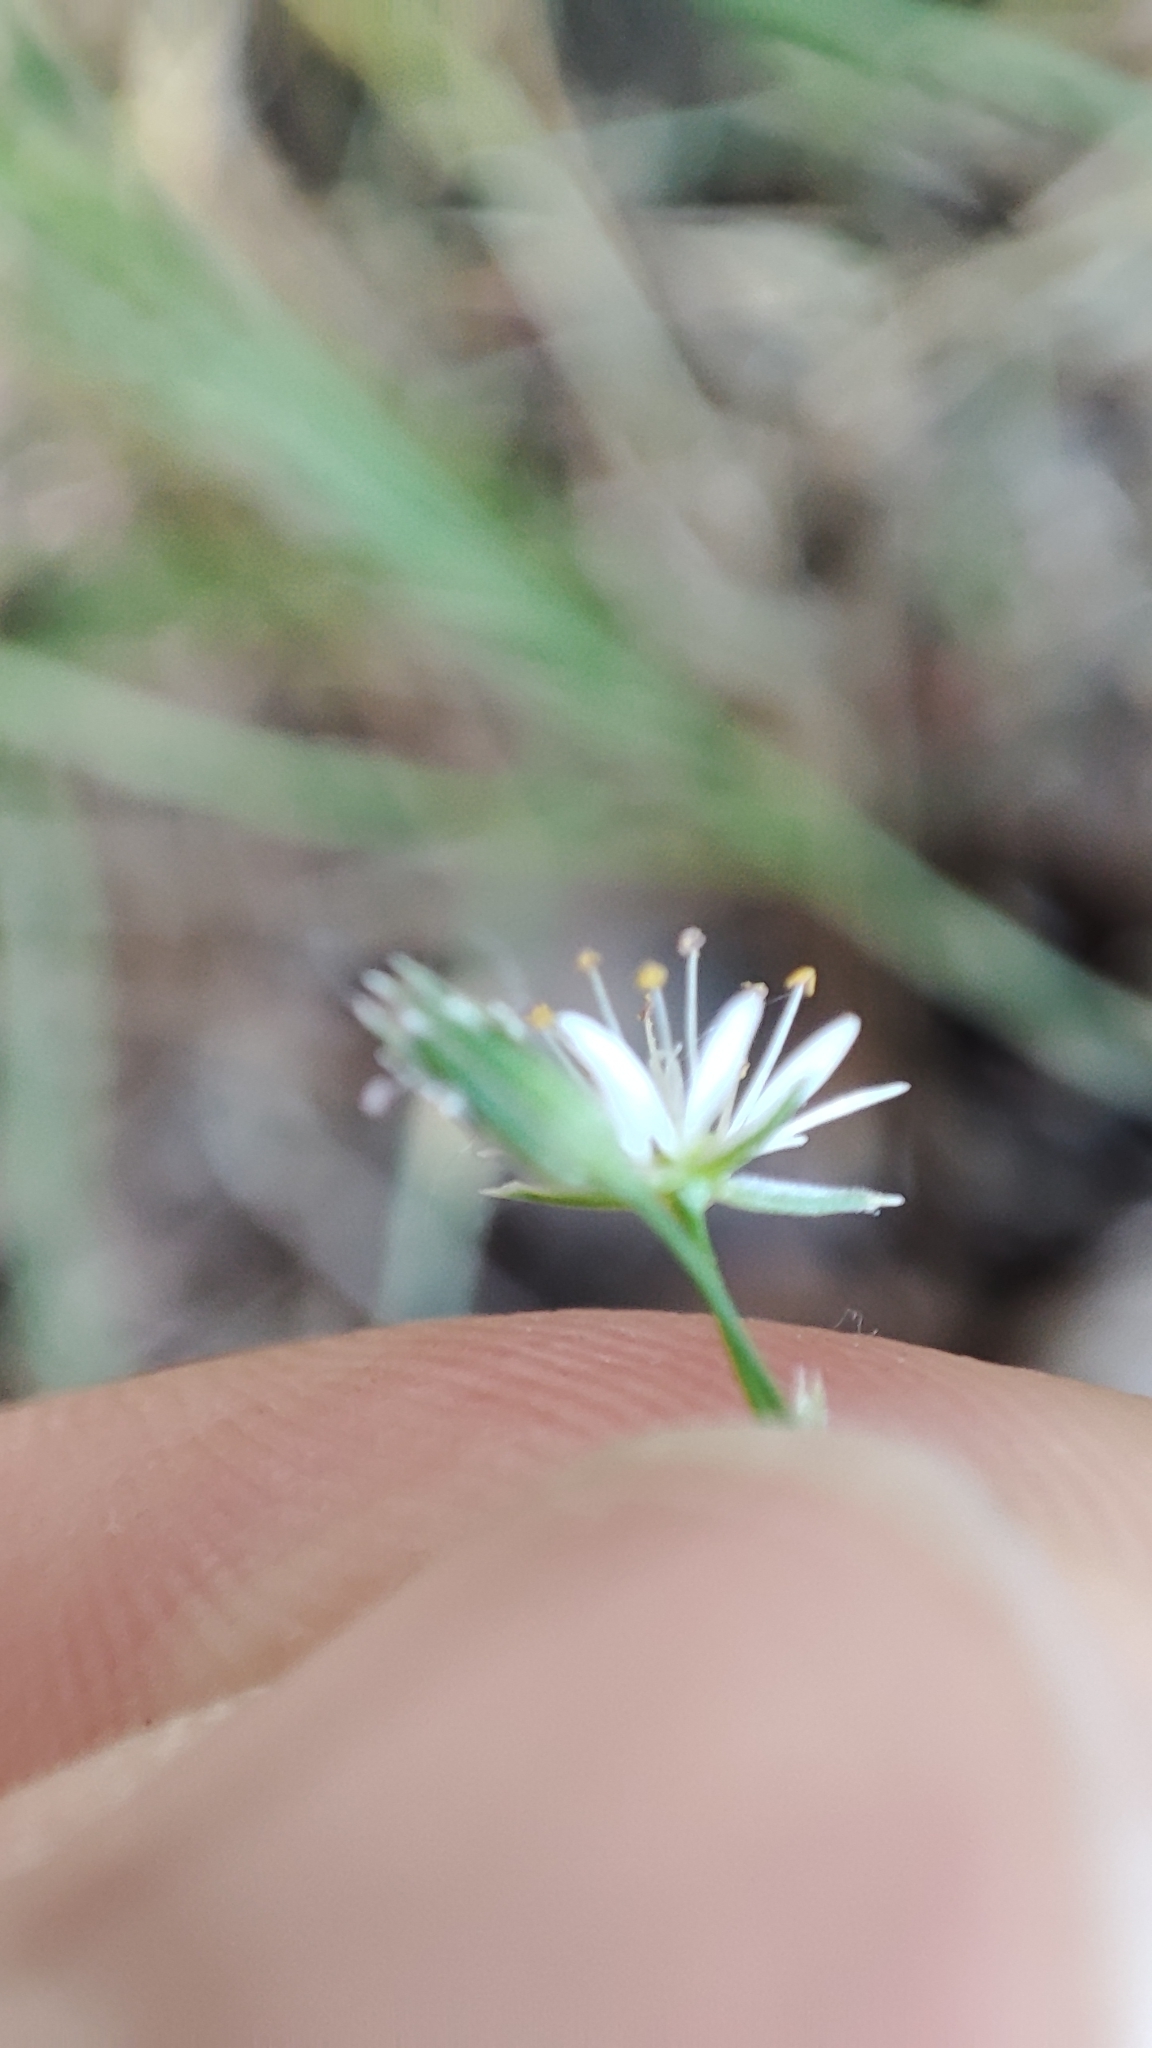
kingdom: Plantae
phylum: Tracheophyta
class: Magnoliopsida
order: Caryophyllales
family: Caryophyllaceae
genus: Stellaria
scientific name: Stellaria graminea
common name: Grass-like starwort
